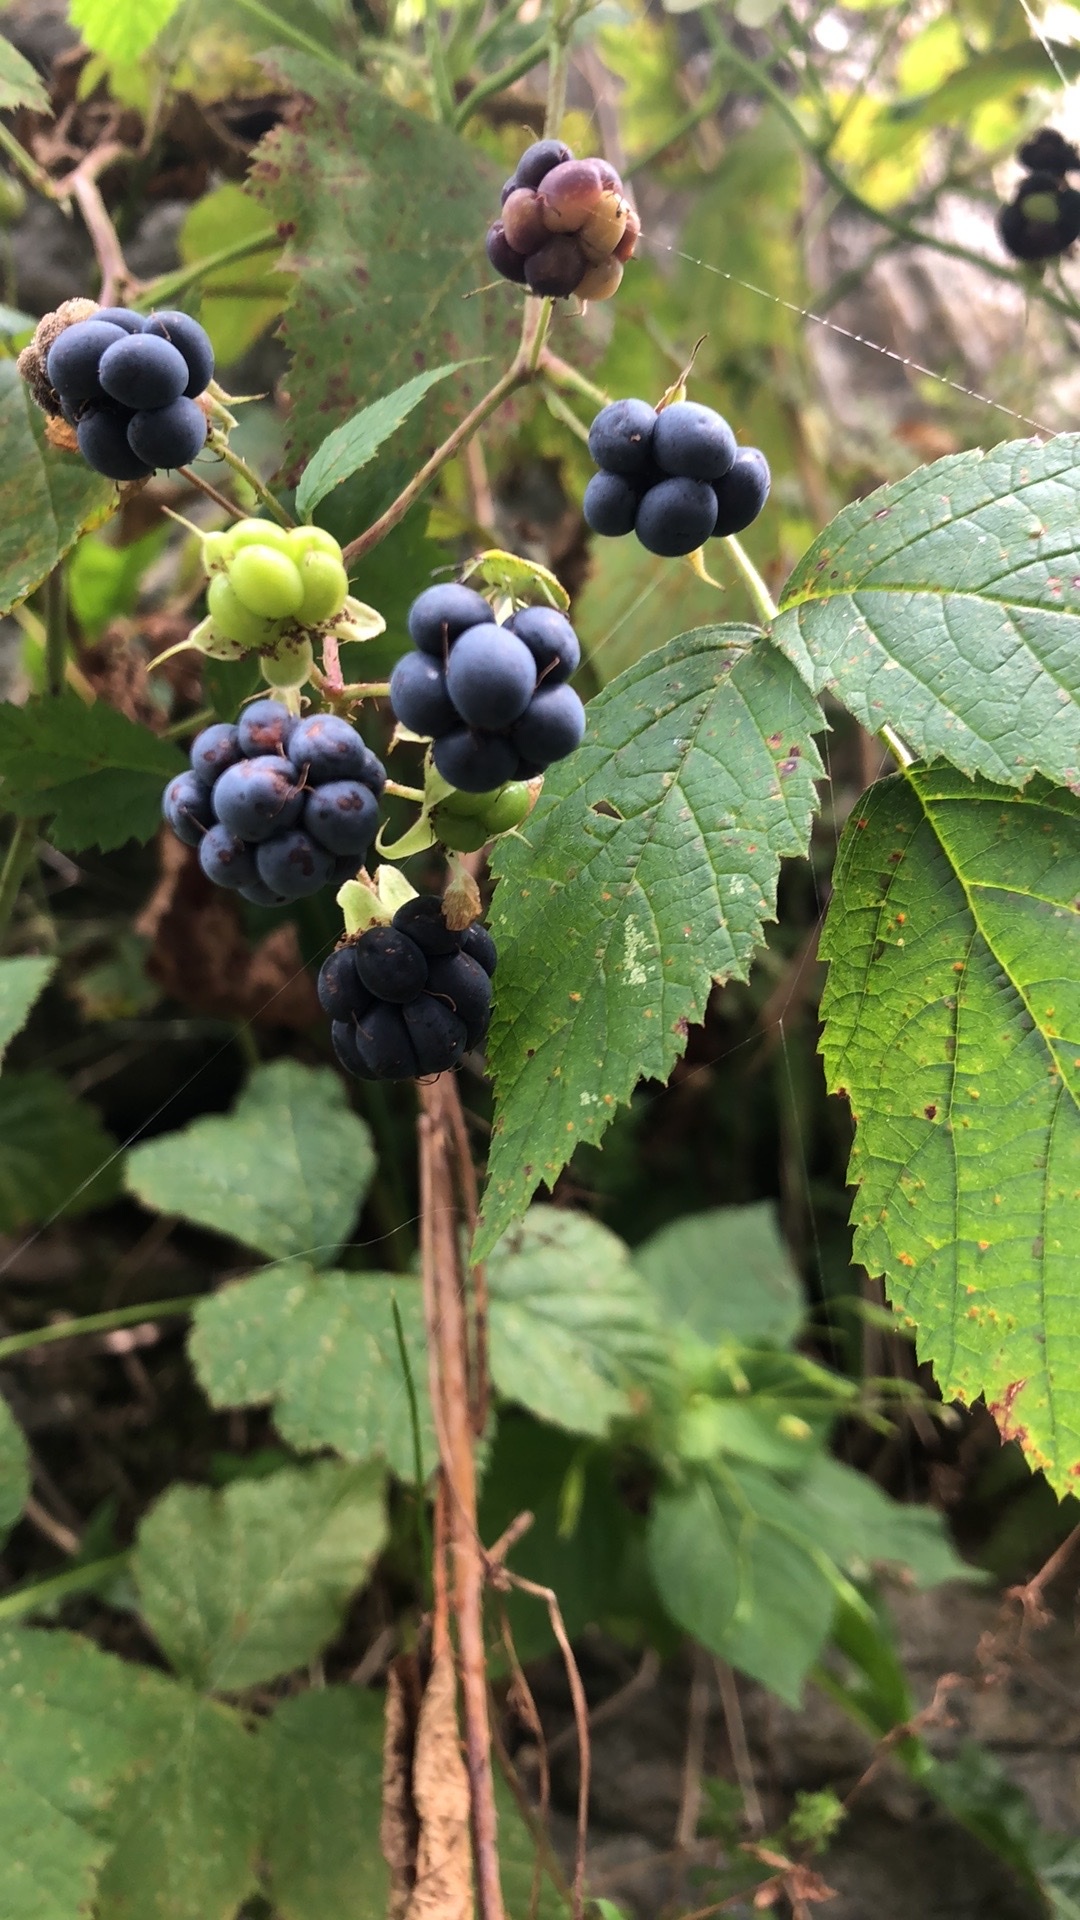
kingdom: Plantae
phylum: Tracheophyta
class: Magnoliopsida
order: Rosales
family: Rosaceae
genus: Rubus
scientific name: Rubus caesius
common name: Dewberry
